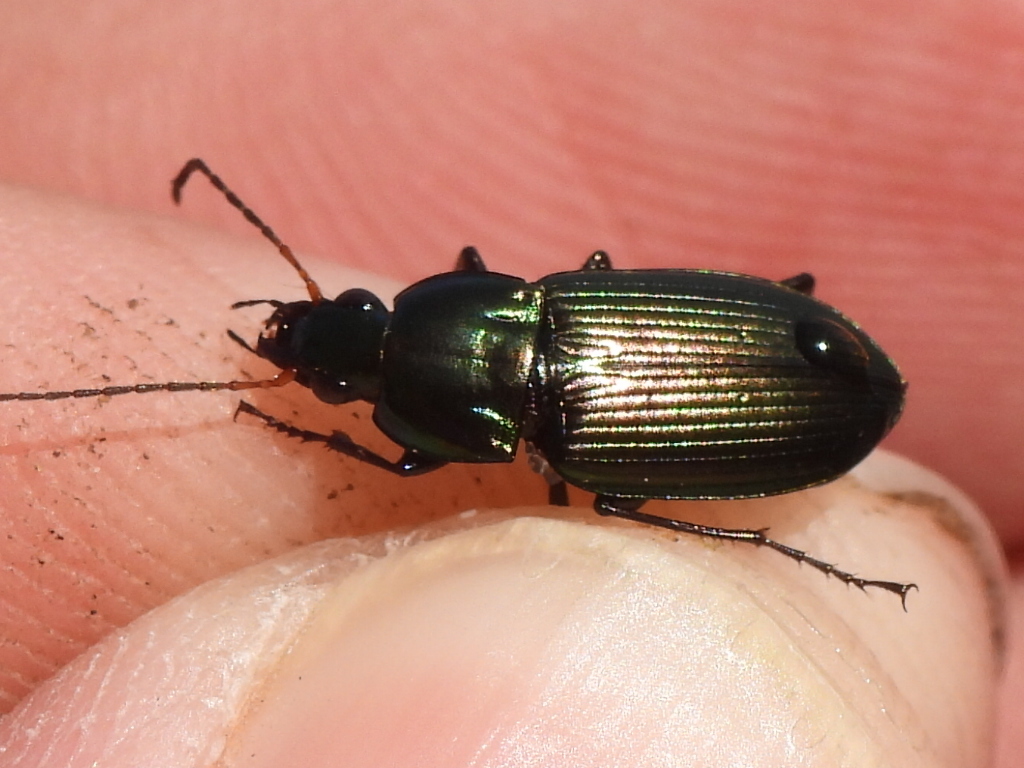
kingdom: Animalia
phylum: Arthropoda
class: Insecta
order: Coleoptera
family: Carabidae
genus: Poecilus
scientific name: Poecilus chalcites
